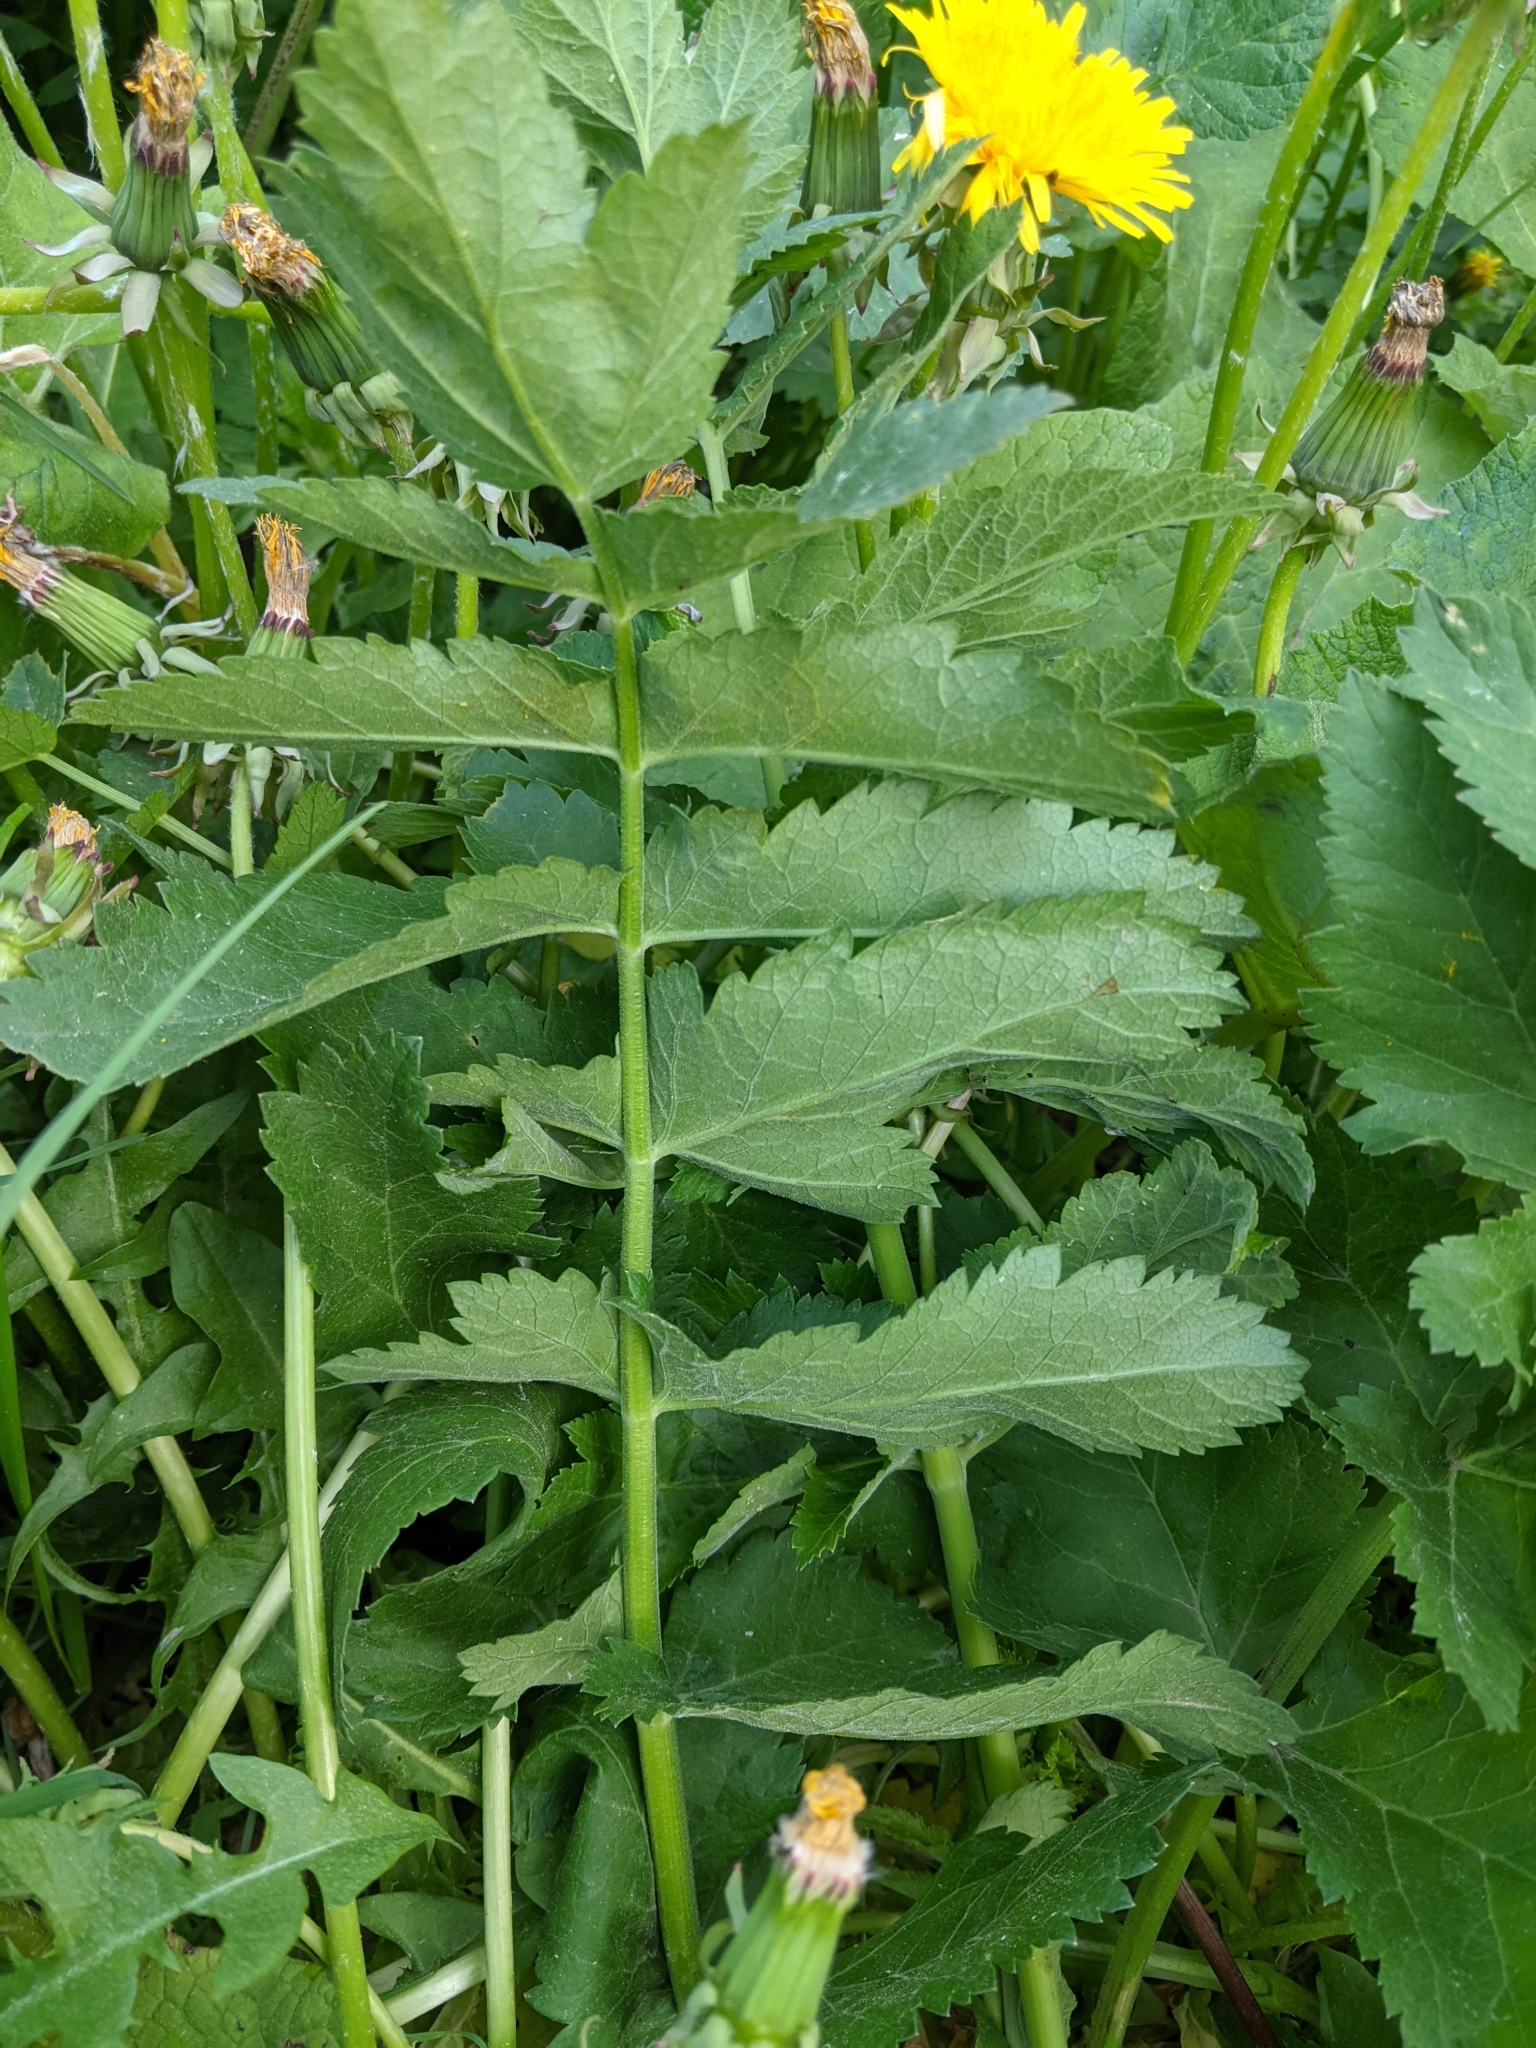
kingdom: Plantae
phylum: Tracheophyta
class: Magnoliopsida
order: Apiales
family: Apiaceae
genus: Pastinaca
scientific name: Pastinaca sativa
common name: Wild parsnip
